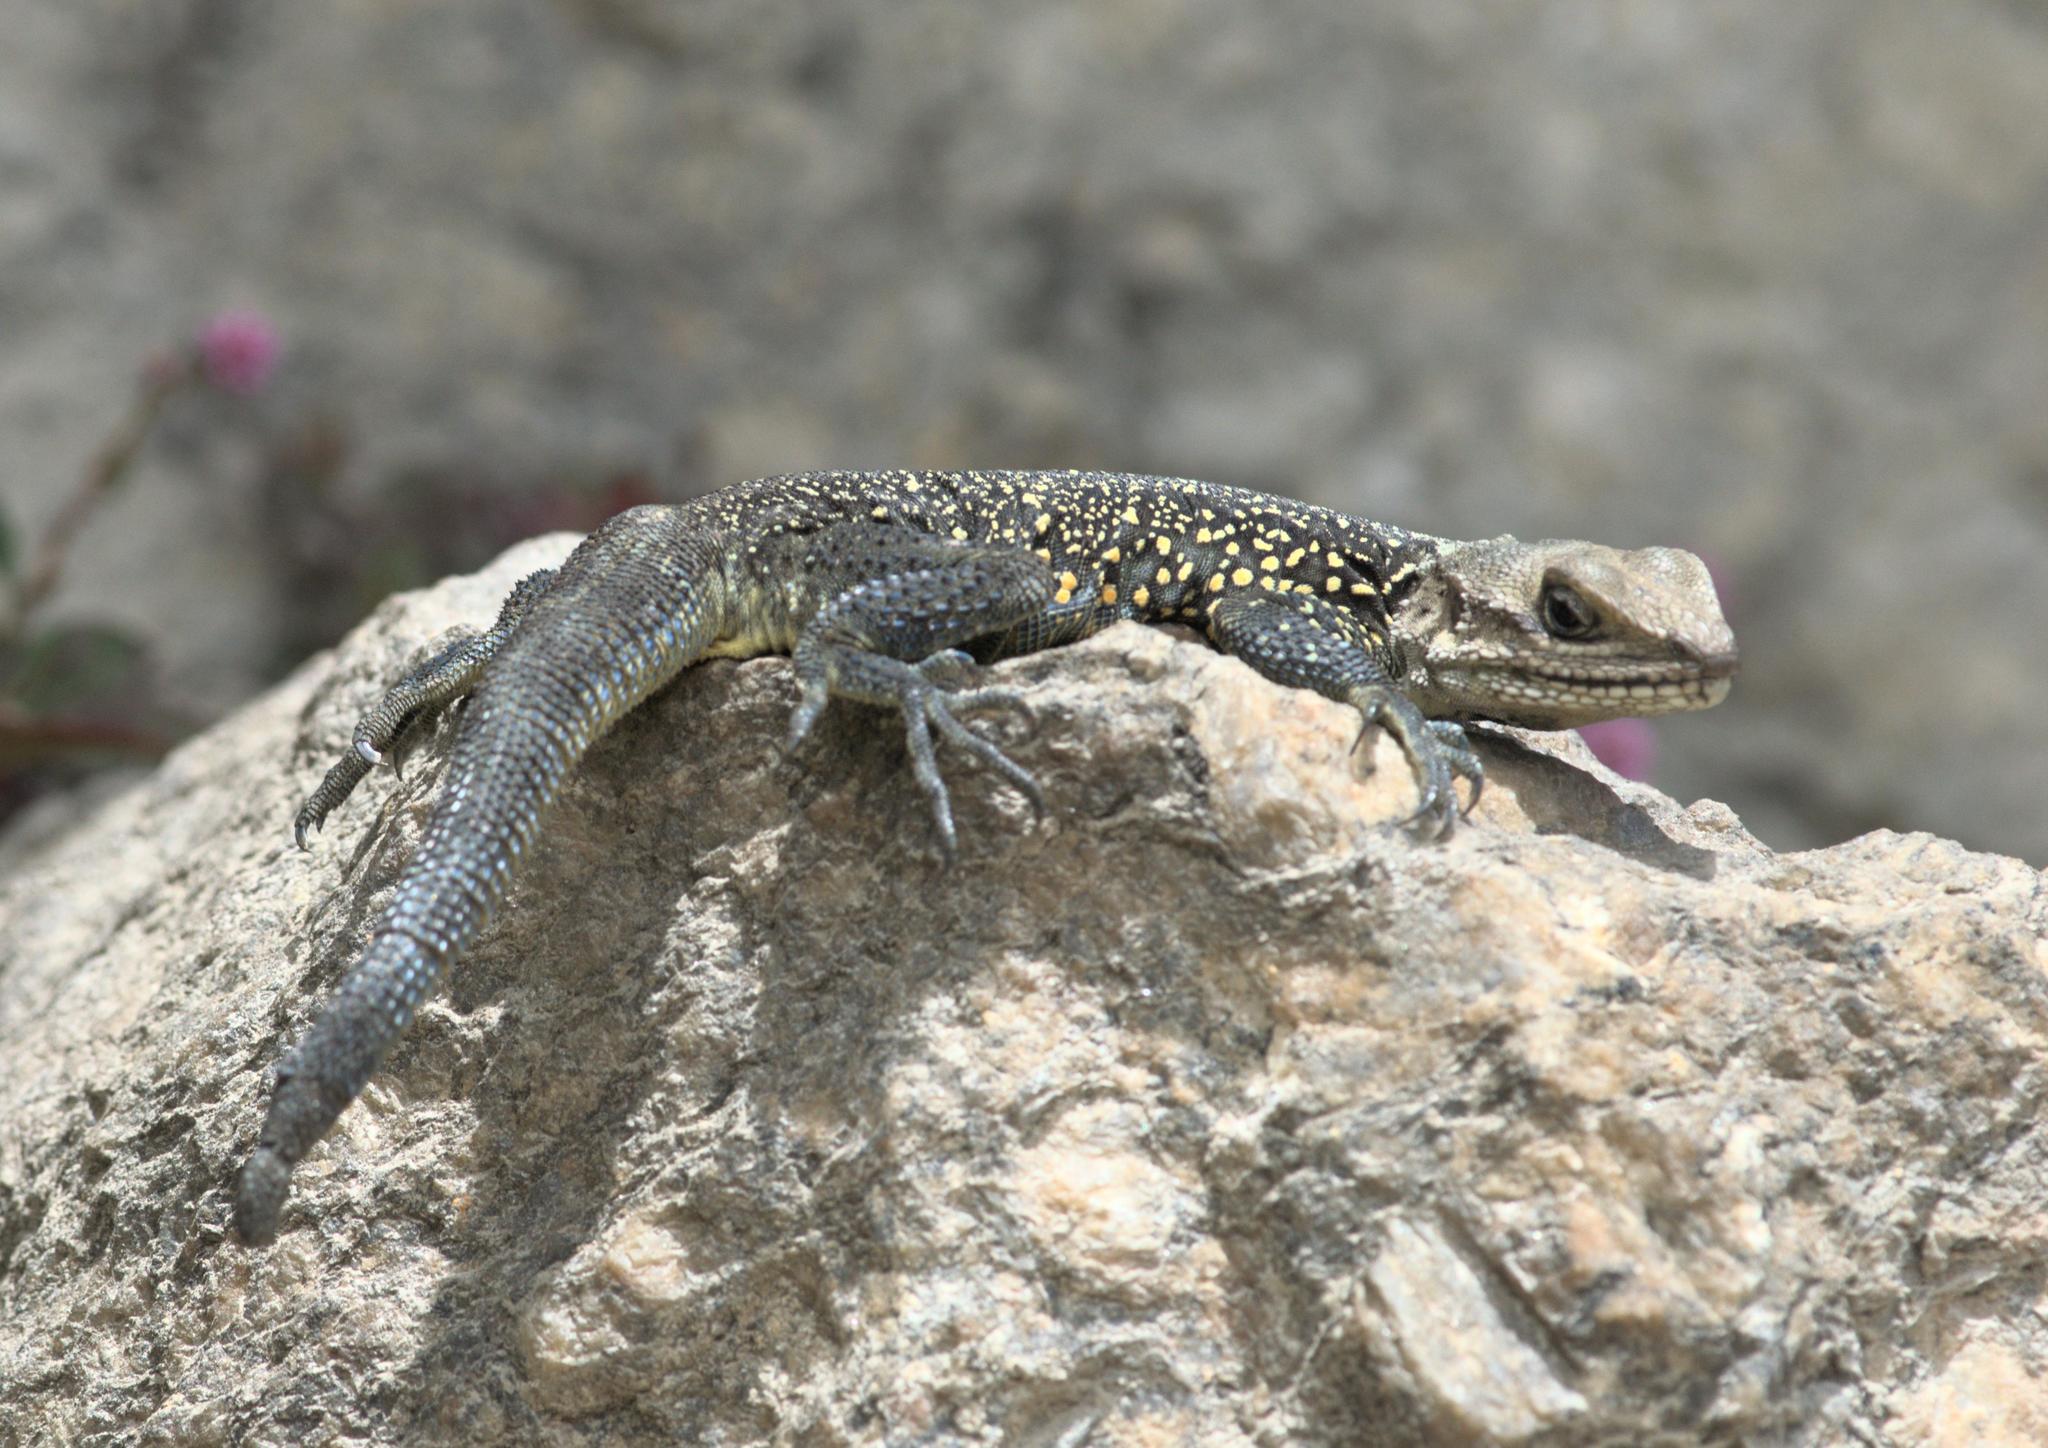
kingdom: Animalia
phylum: Chordata
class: Squamata
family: Agamidae
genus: Laudakia
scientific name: Laudakia tuberculata
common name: Kashmir rock agama
